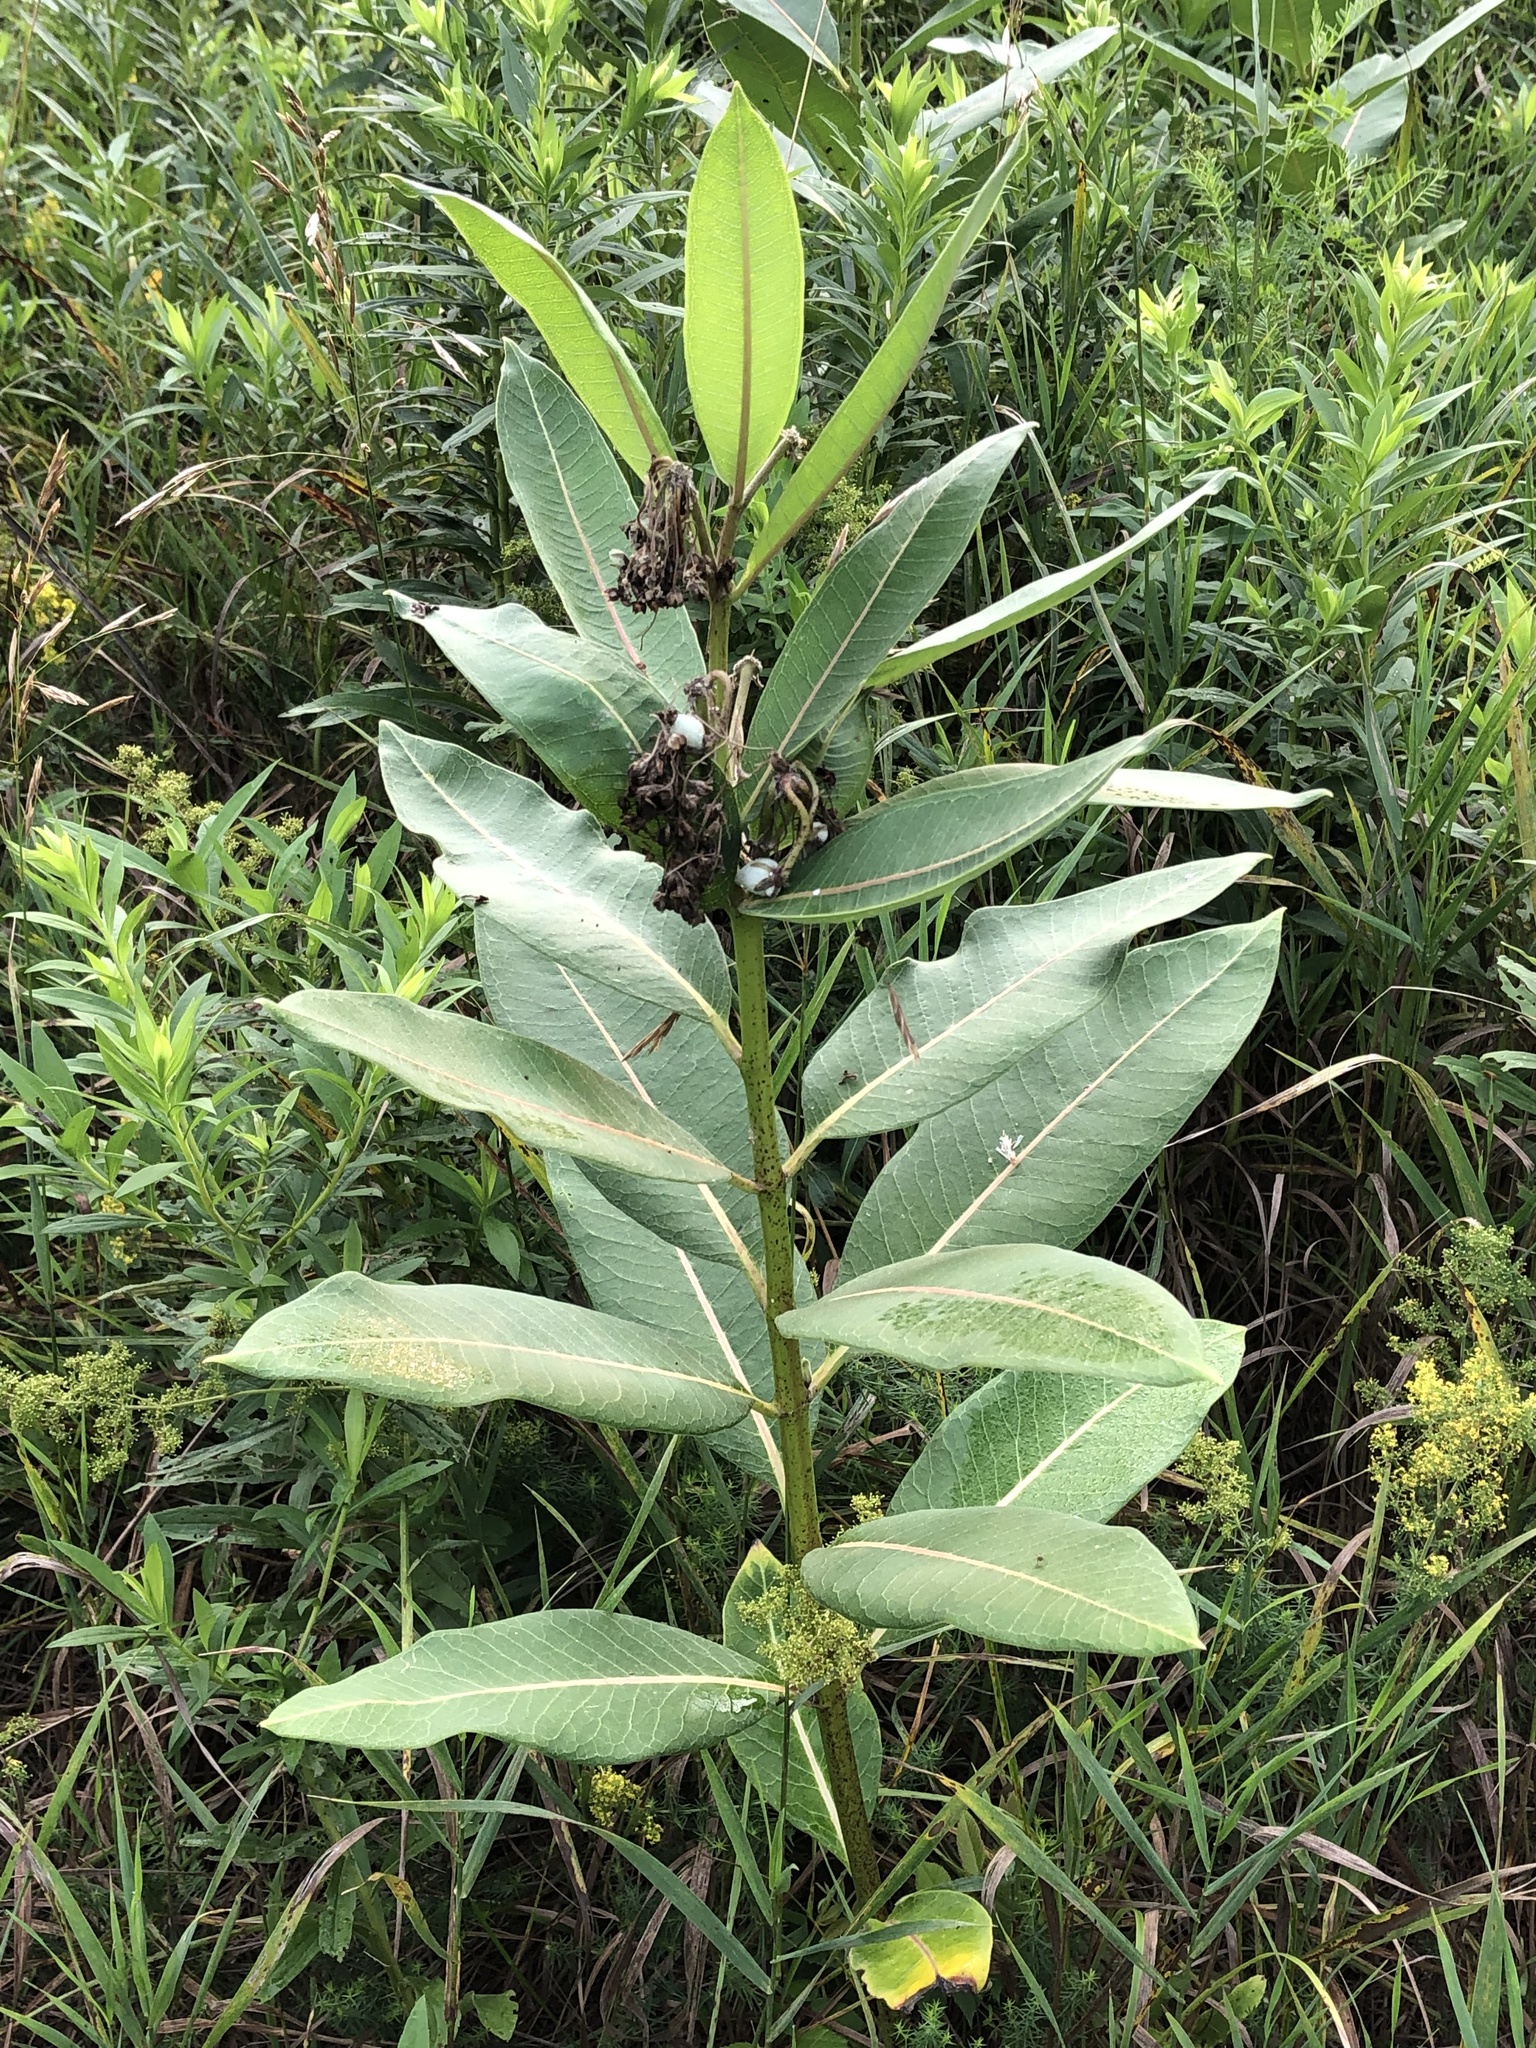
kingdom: Plantae
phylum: Tracheophyta
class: Magnoliopsida
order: Gentianales
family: Apocynaceae
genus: Asclepias
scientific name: Asclepias syriaca
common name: Common milkweed
